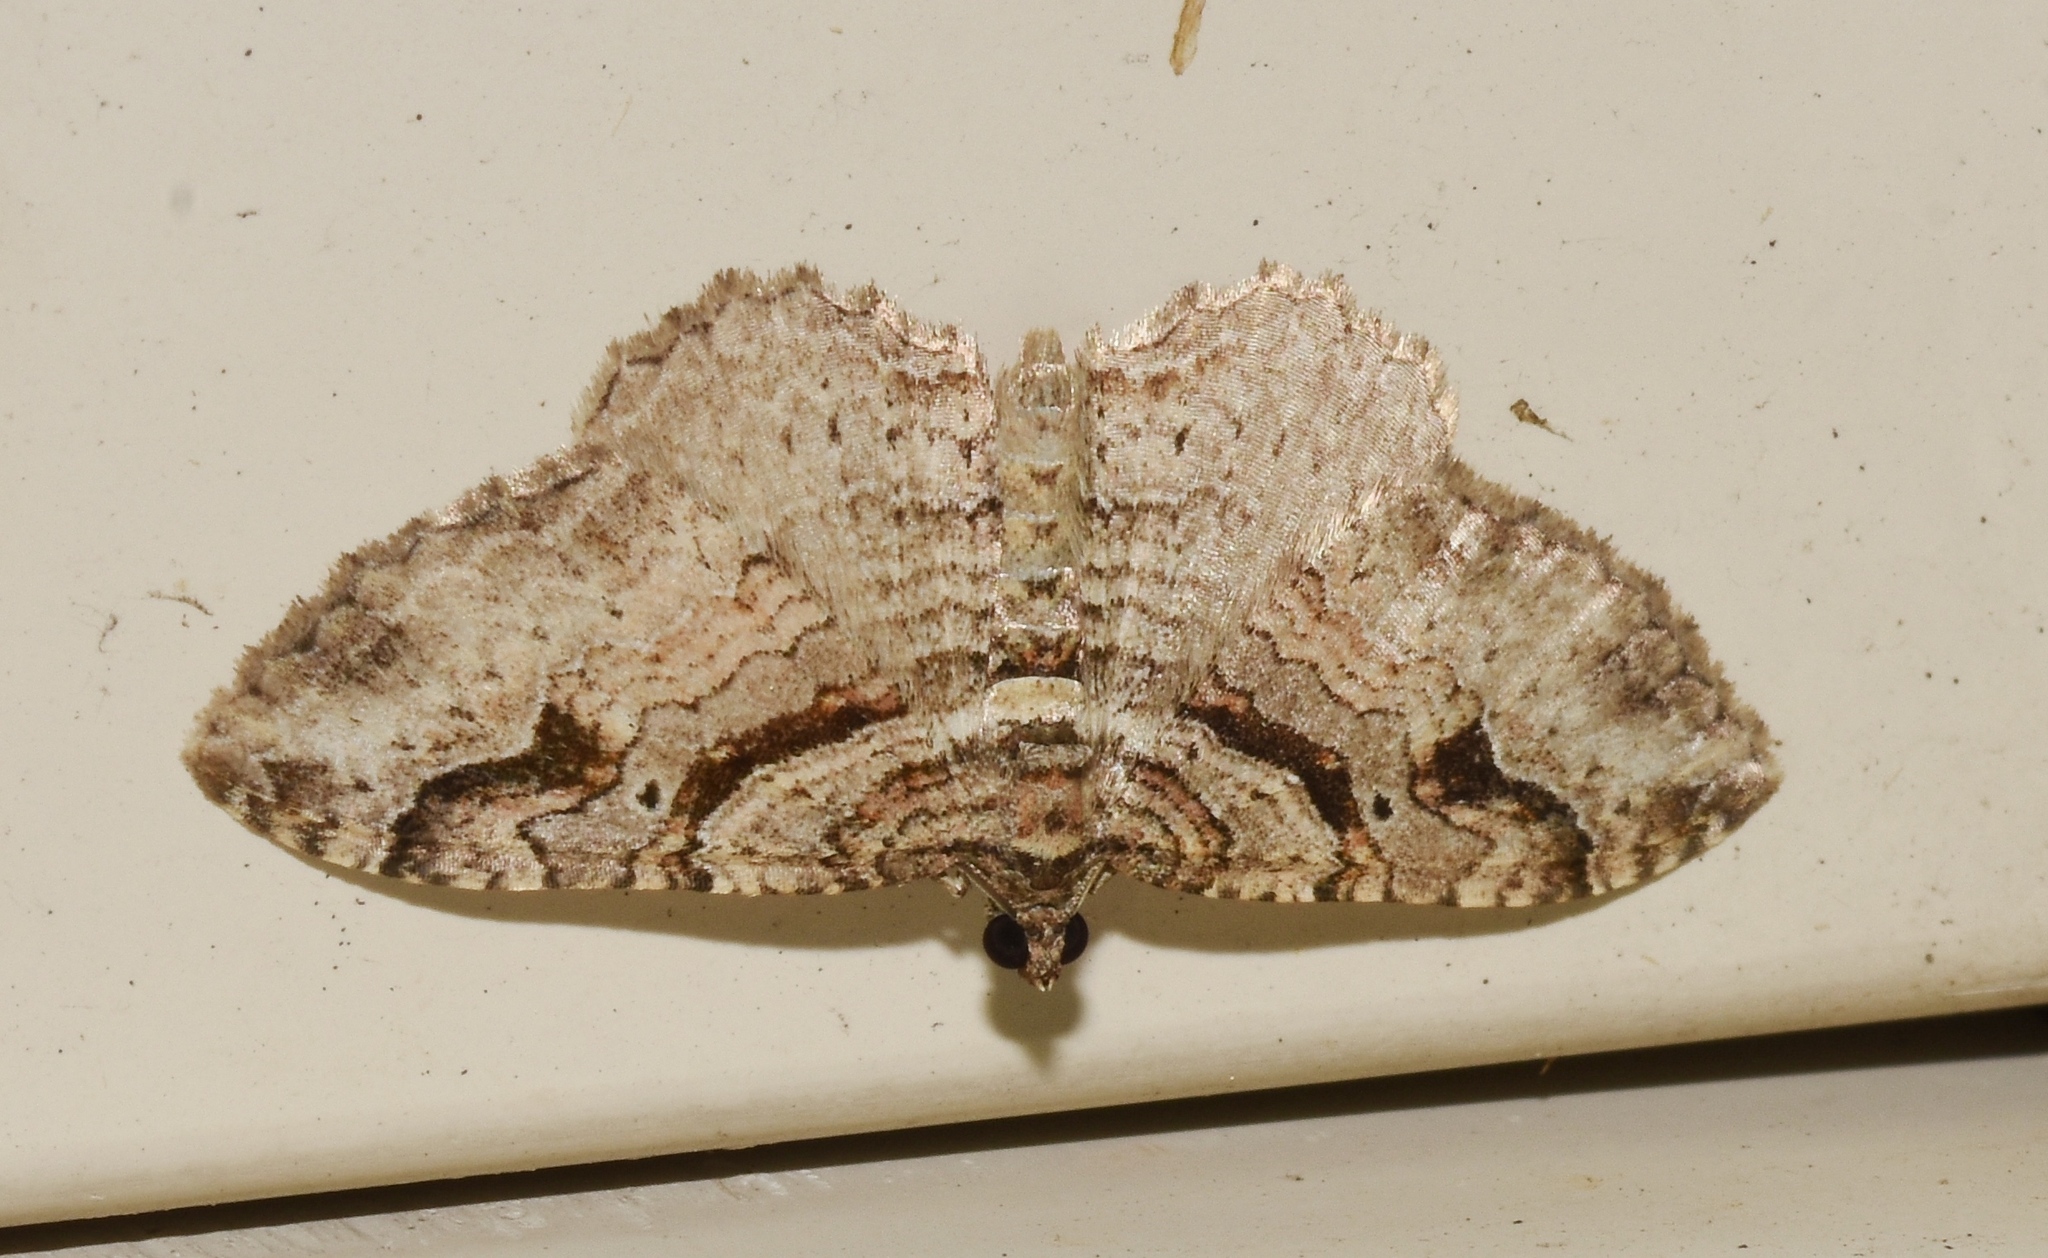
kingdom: Animalia
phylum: Arthropoda
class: Insecta
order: Lepidoptera
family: Geometridae
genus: Costaconvexa
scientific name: Costaconvexa centrostrigaria
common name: Bent-line carpet
